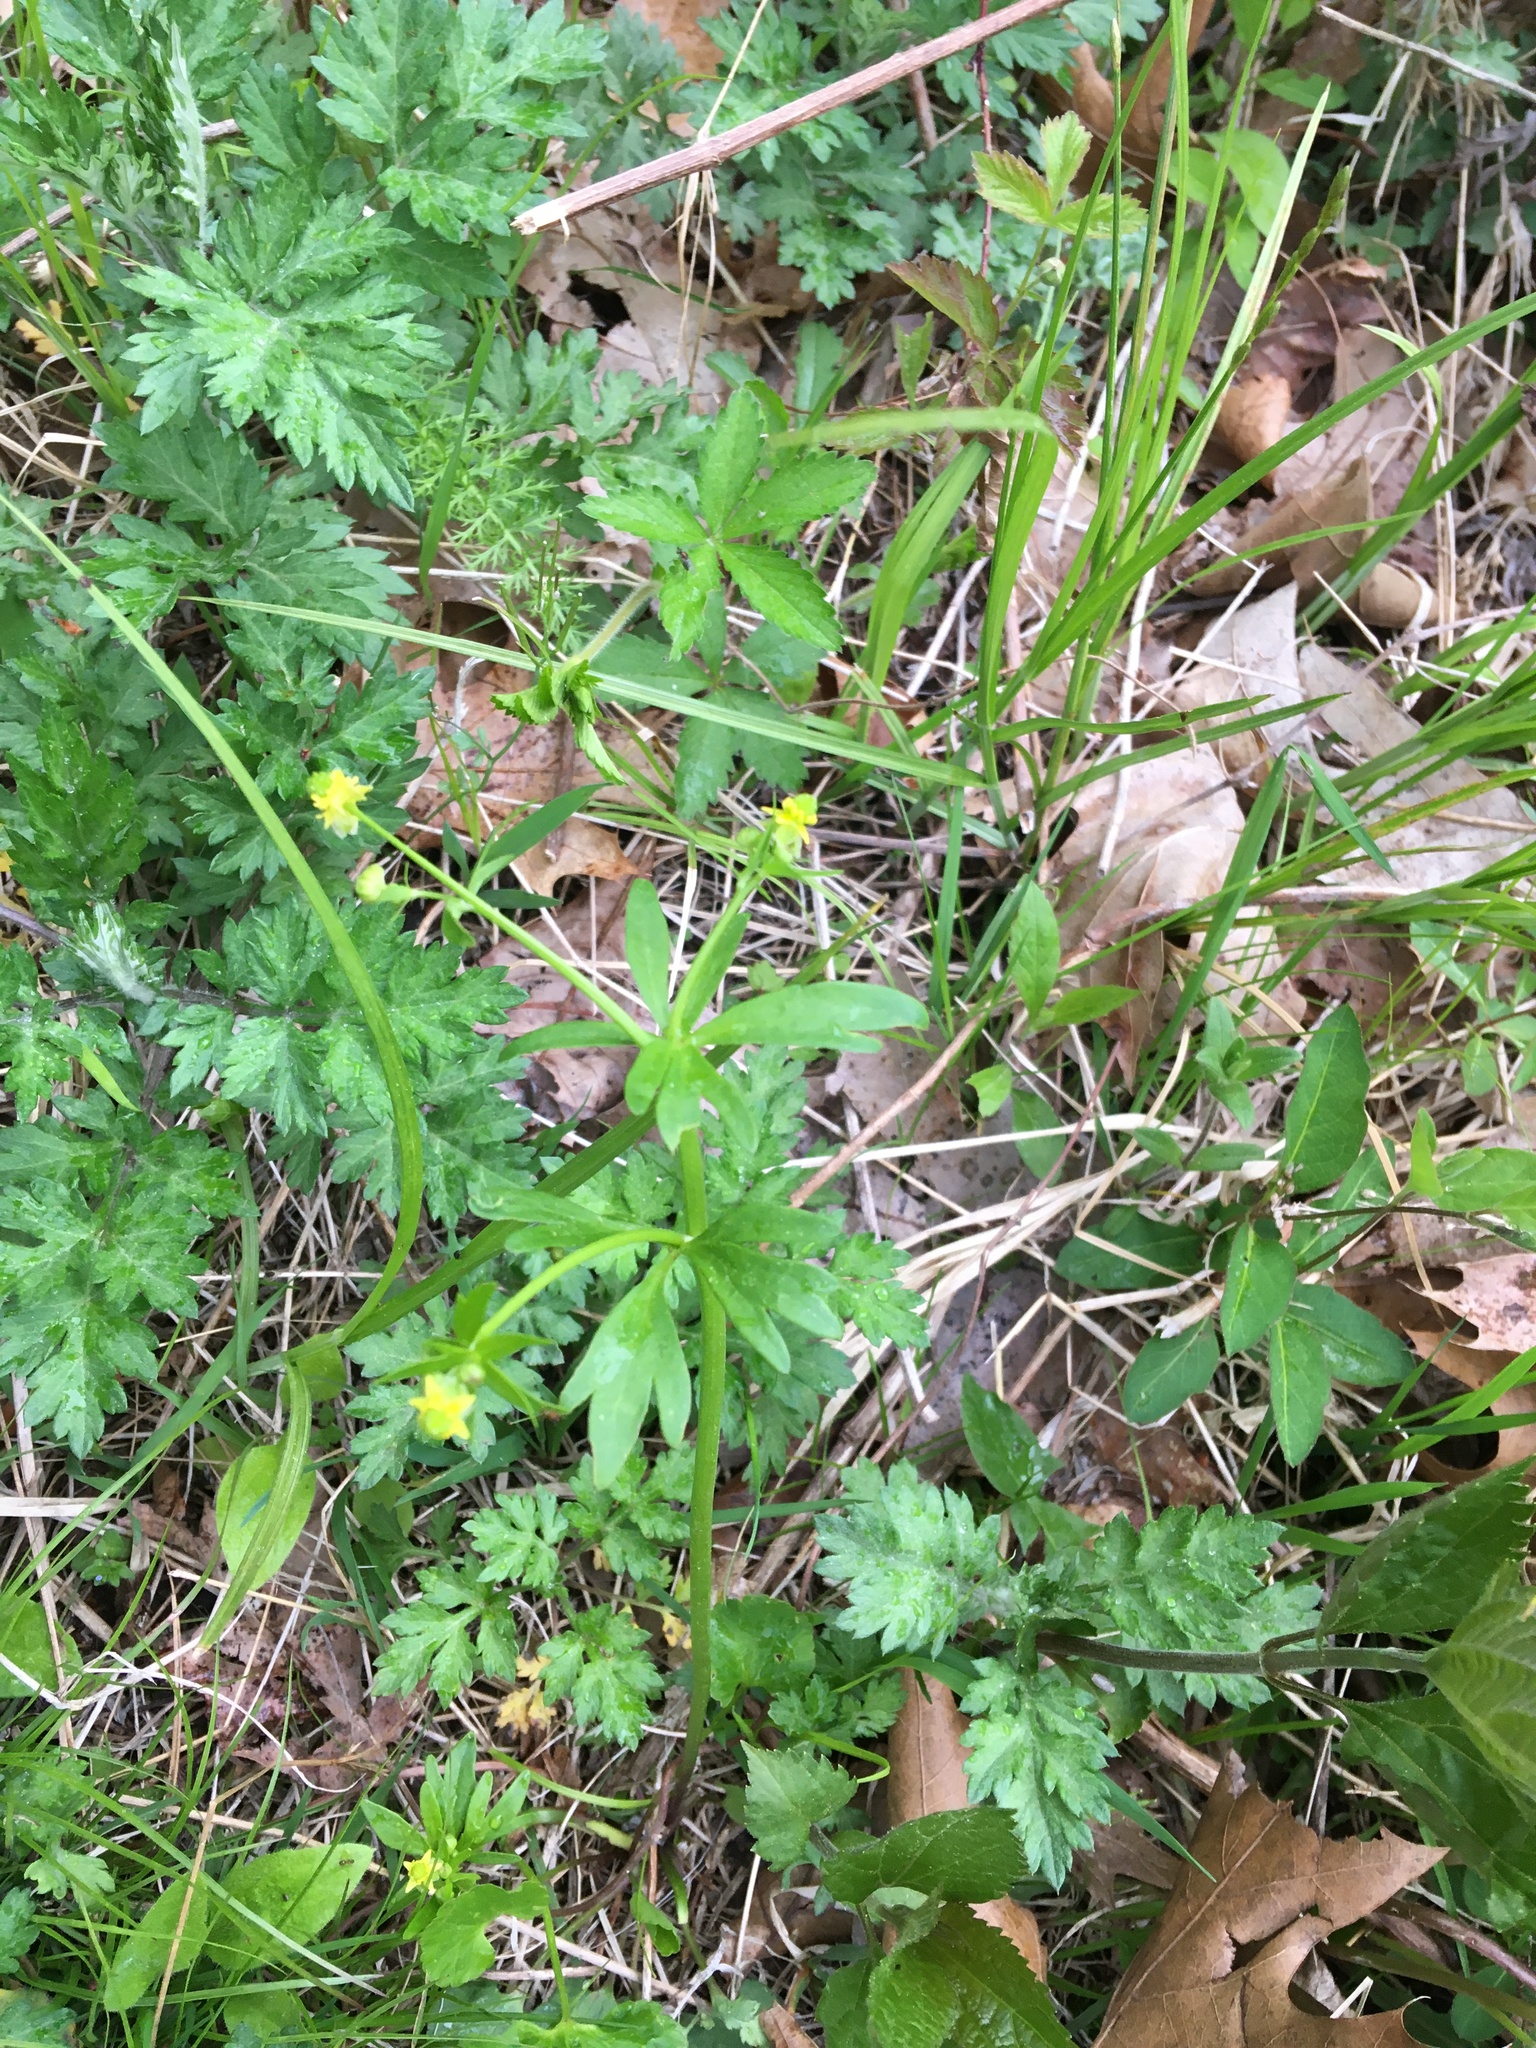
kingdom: Plantae
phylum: Tracheophyta
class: Magnoliopsida
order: Ranunculales
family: Ranunculaceae
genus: Ranunculus
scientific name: Ranunculus abortivus
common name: Early wood buttercup
